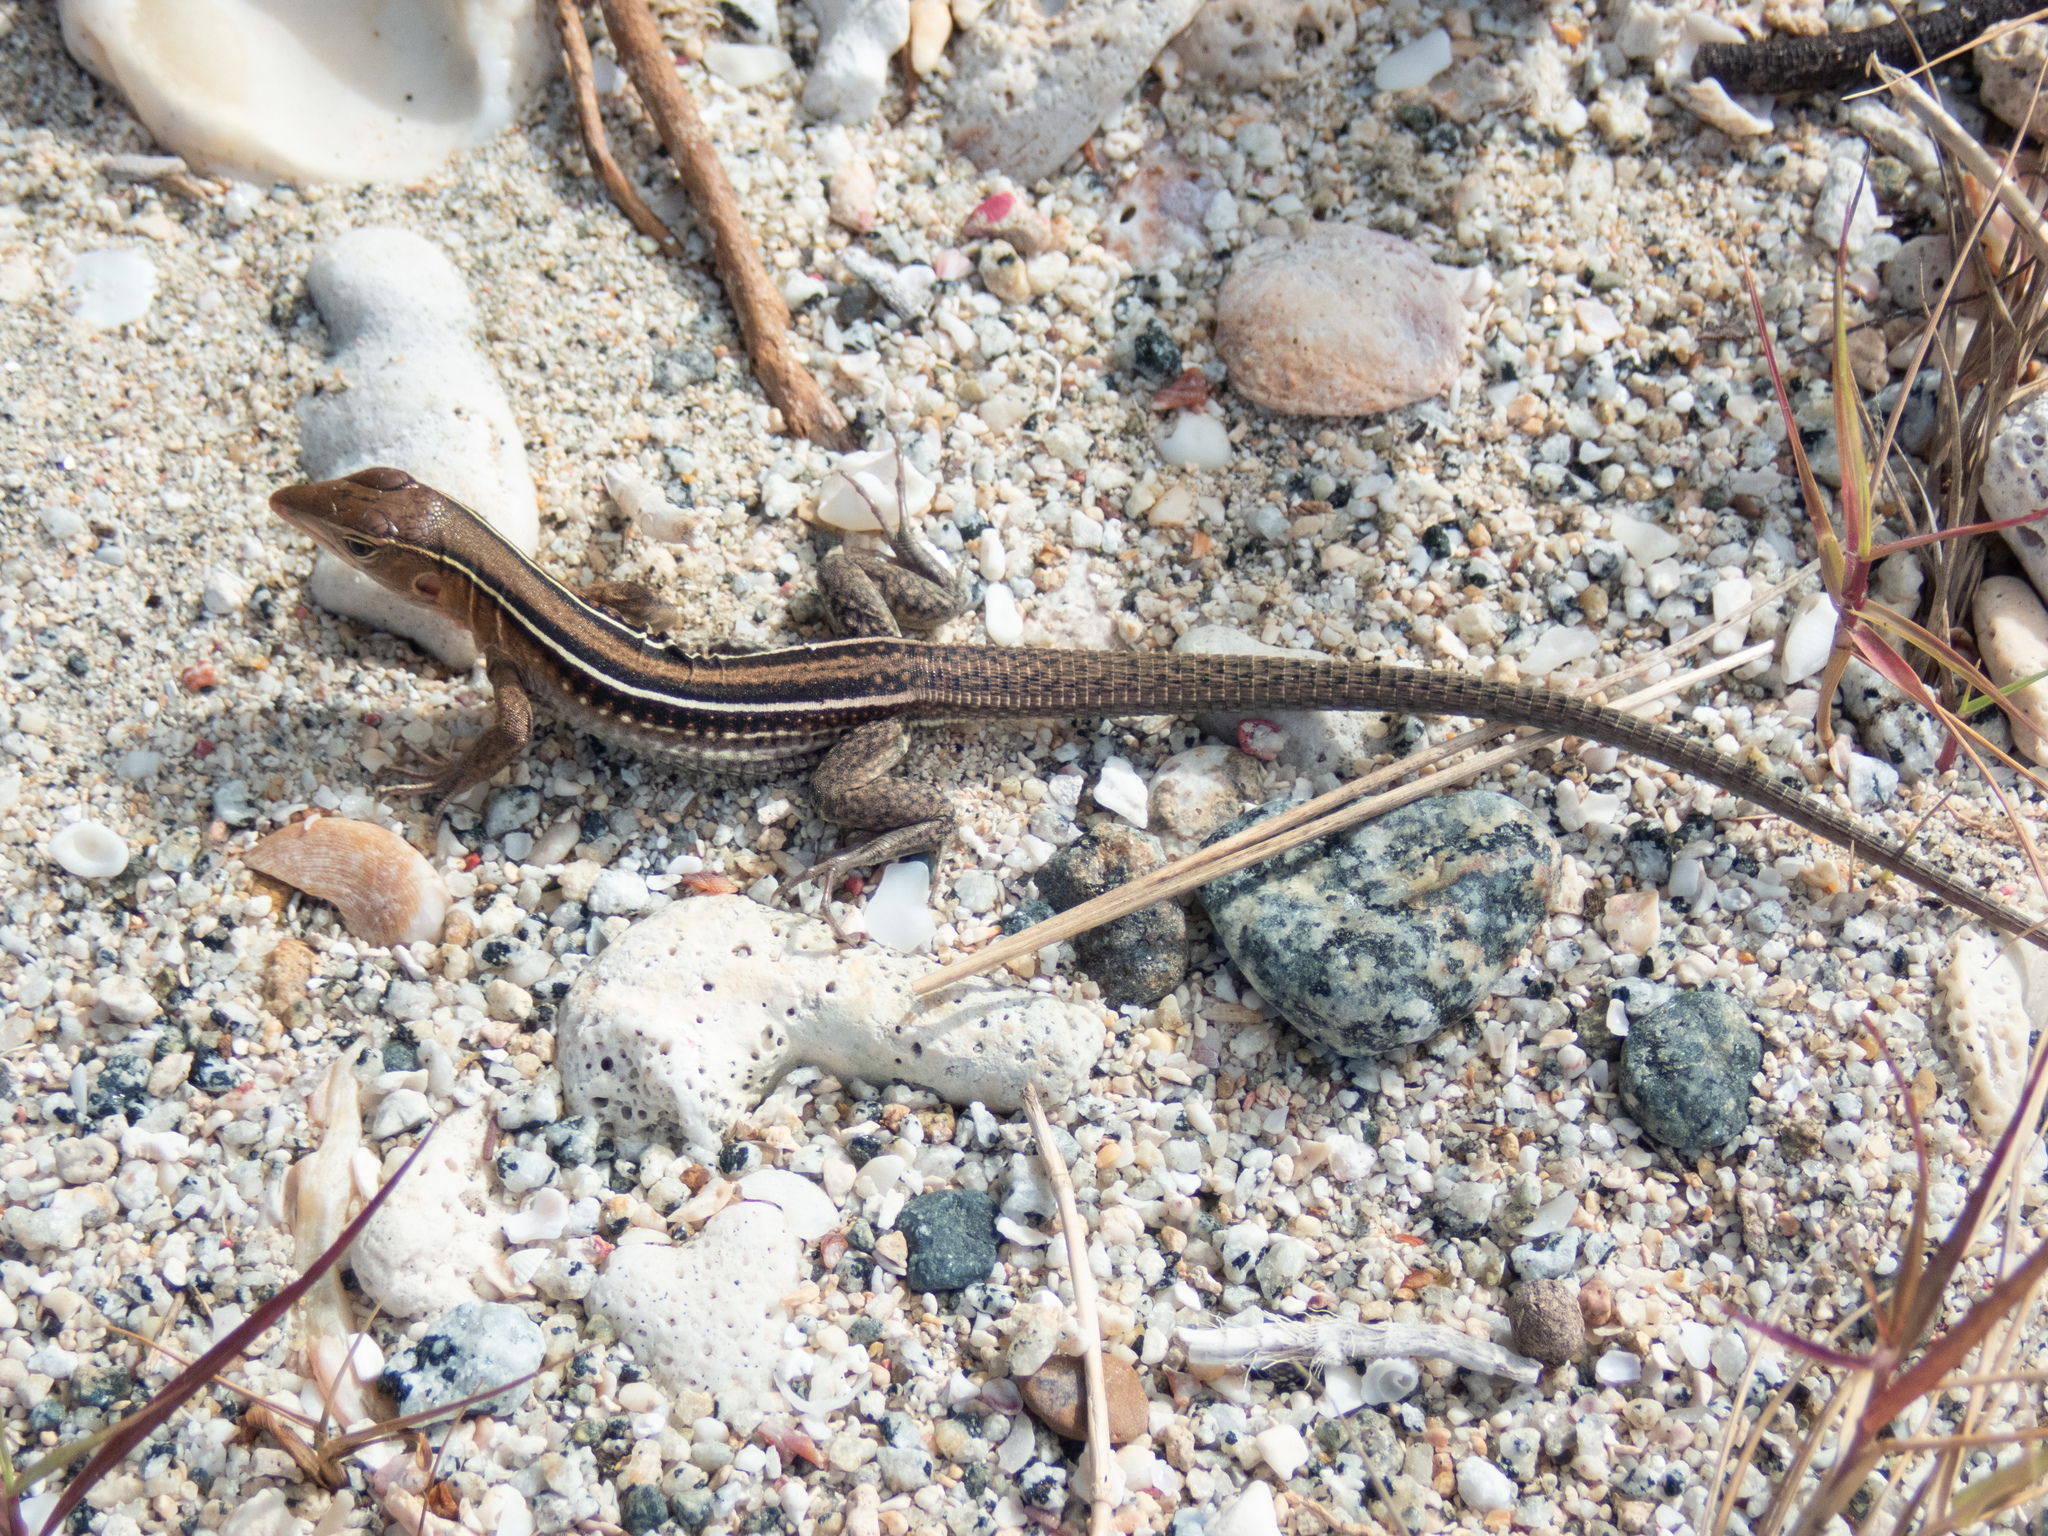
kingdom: Animalia
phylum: Chordata
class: Squamata
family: Teiidae
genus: Pholidoscelis
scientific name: Pholidoscelis exsul
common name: Common puerto rican ameiva
